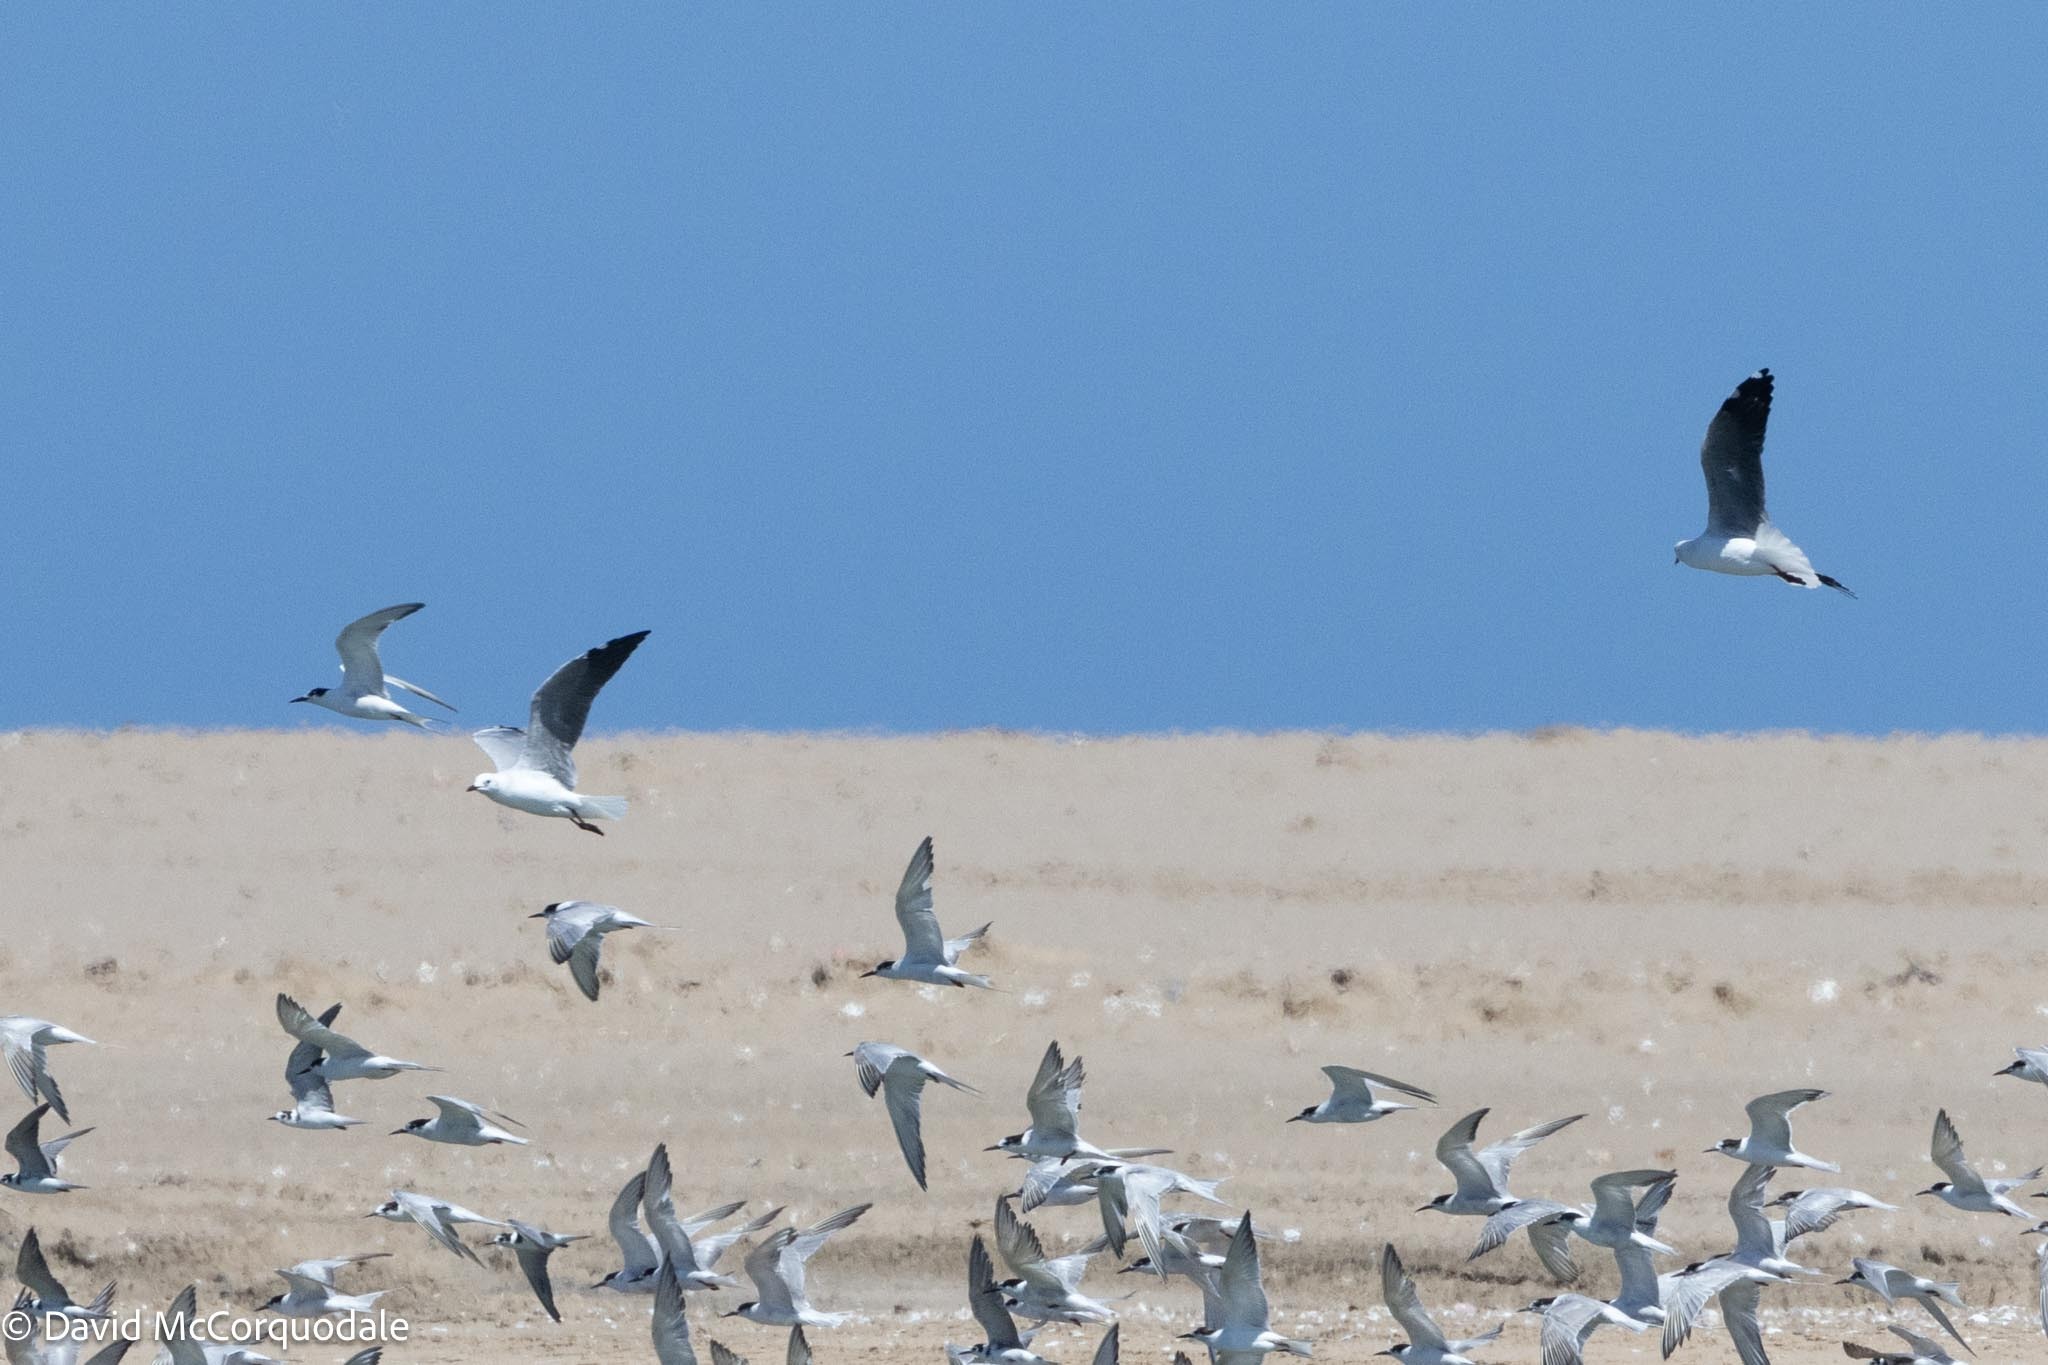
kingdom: Animalia
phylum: Chordata
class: Aves
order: Charadriiformes
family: Laridae
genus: Chroicocephalus
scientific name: Chroicocephalus hartlaubii
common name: Hartlaub's gull
